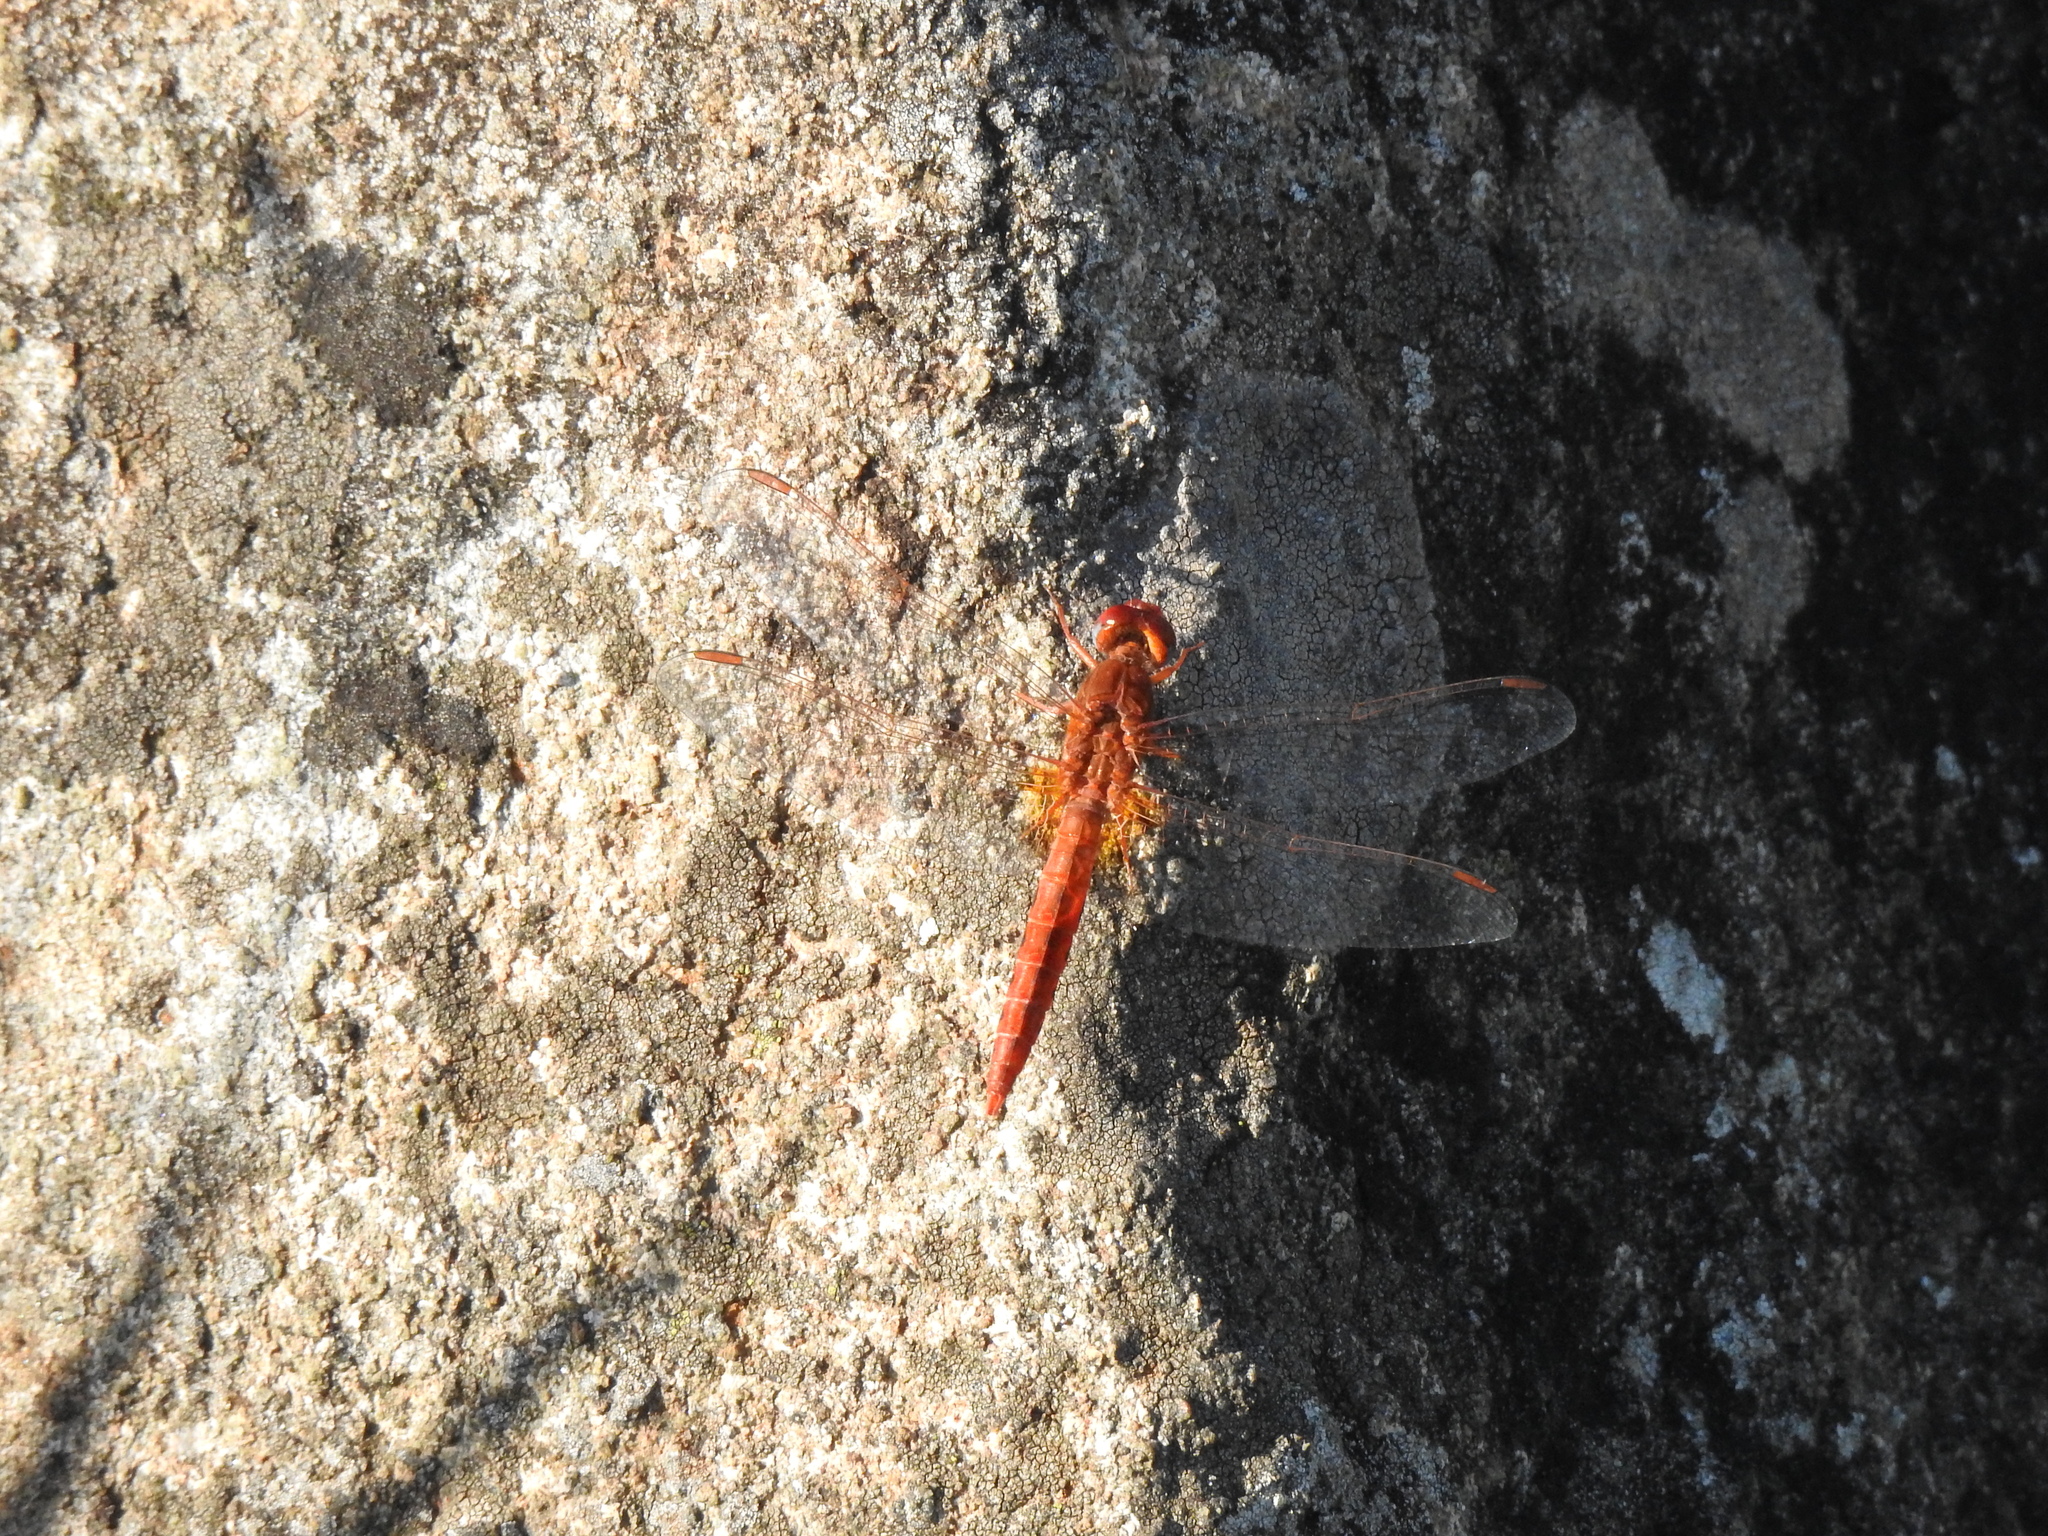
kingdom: Animalia
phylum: Arthropoda
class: Insecta
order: Odonata
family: Libellulidae
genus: Crocothemis
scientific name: Crocothemis sanguinolenta
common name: Little scarlet
